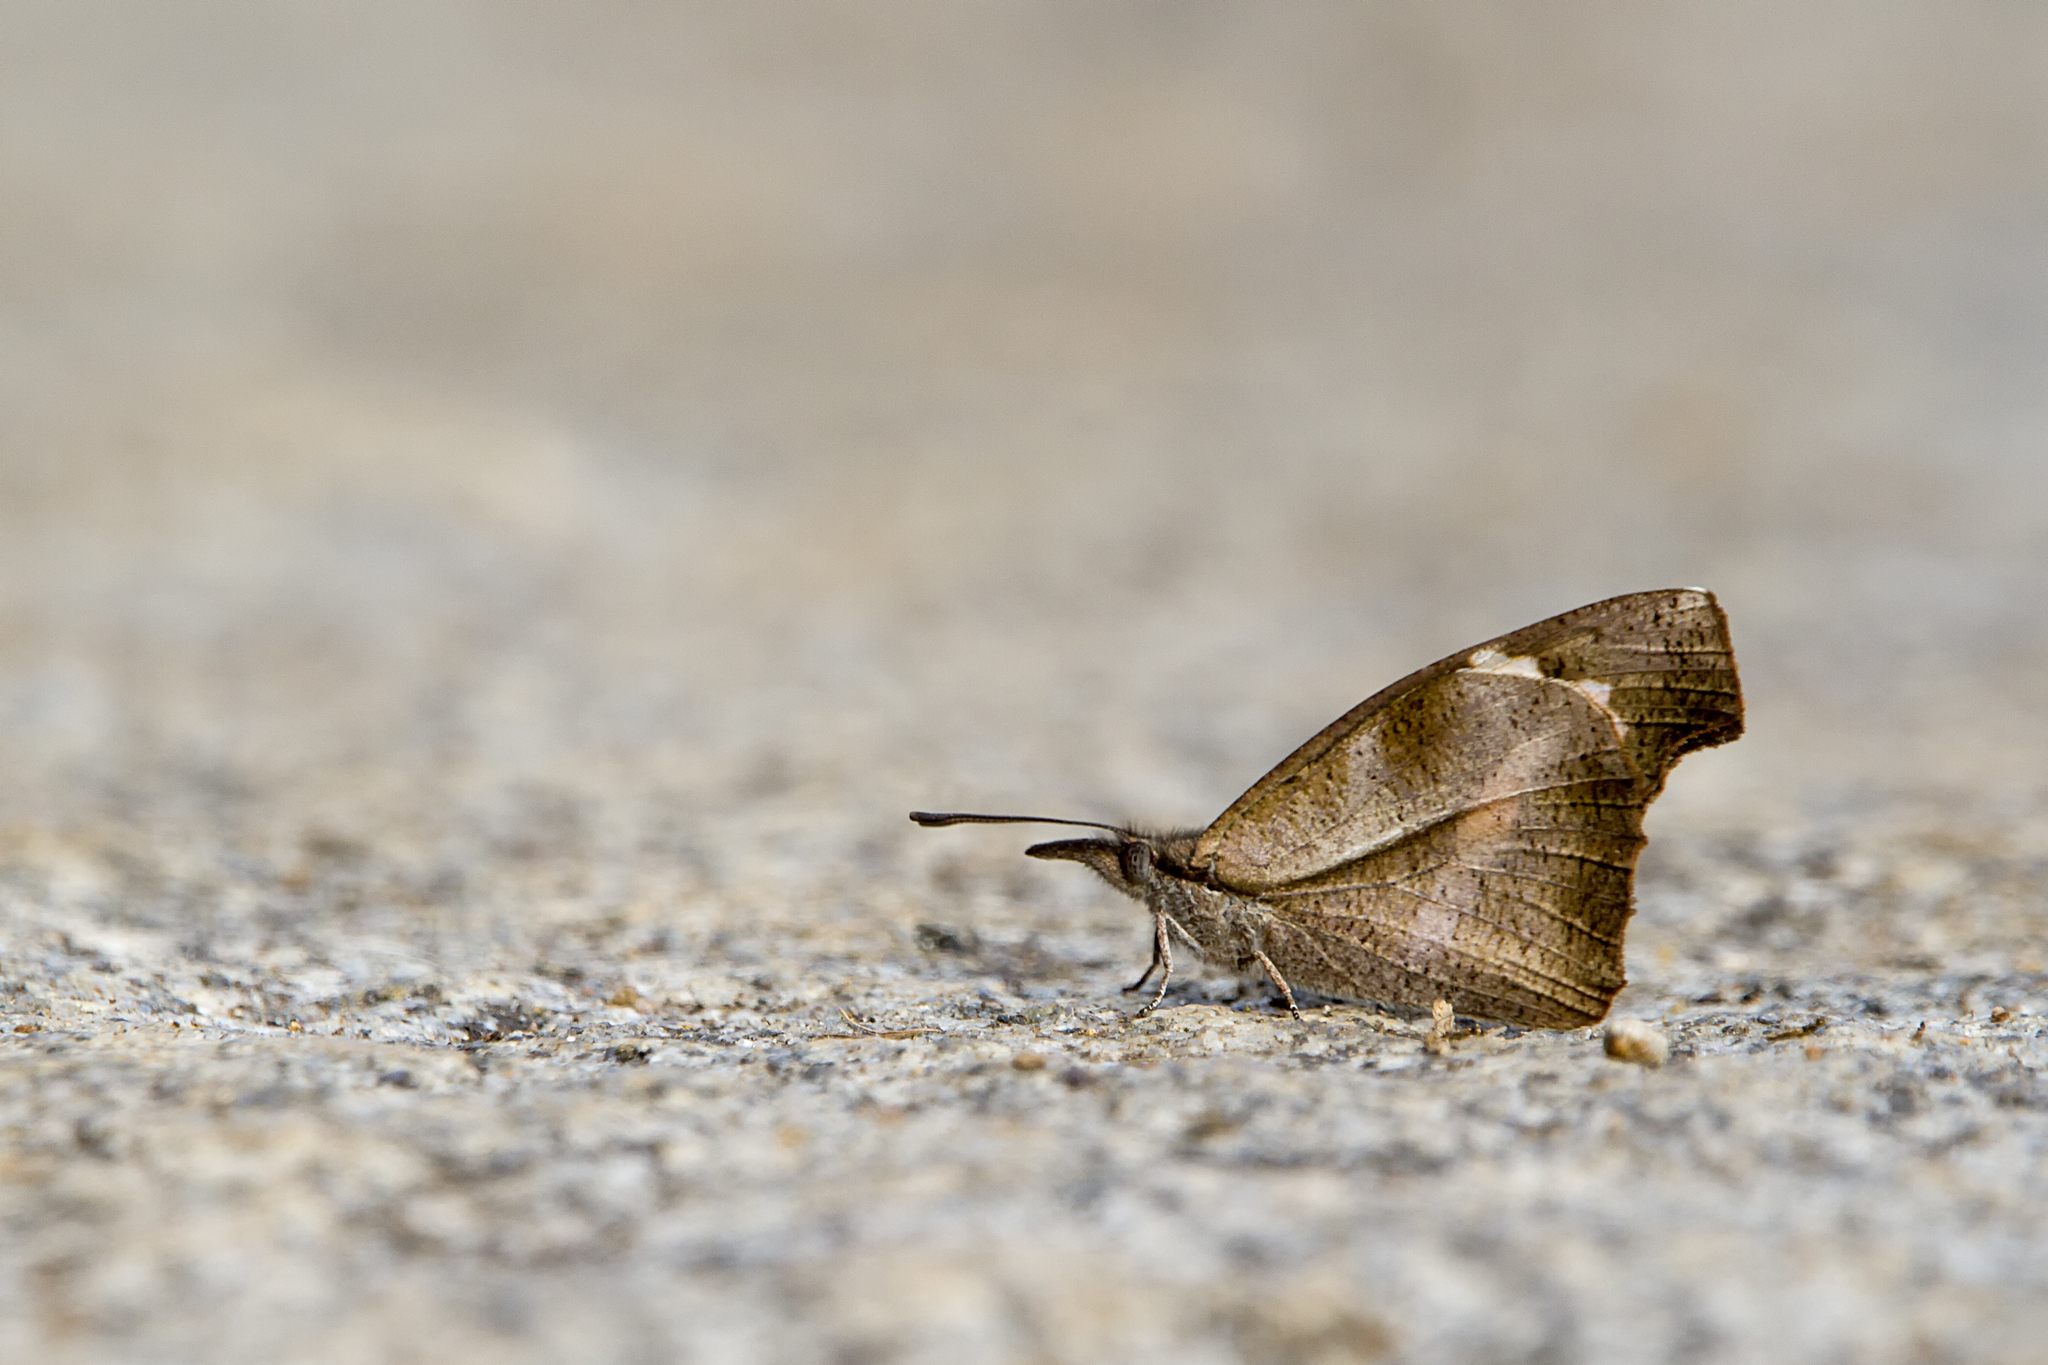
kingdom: Animalia
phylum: Arthropoda
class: Insecta
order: Lepidoptera
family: Nymphalidae
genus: Libythea
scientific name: Libythea lepita
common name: Common beak
